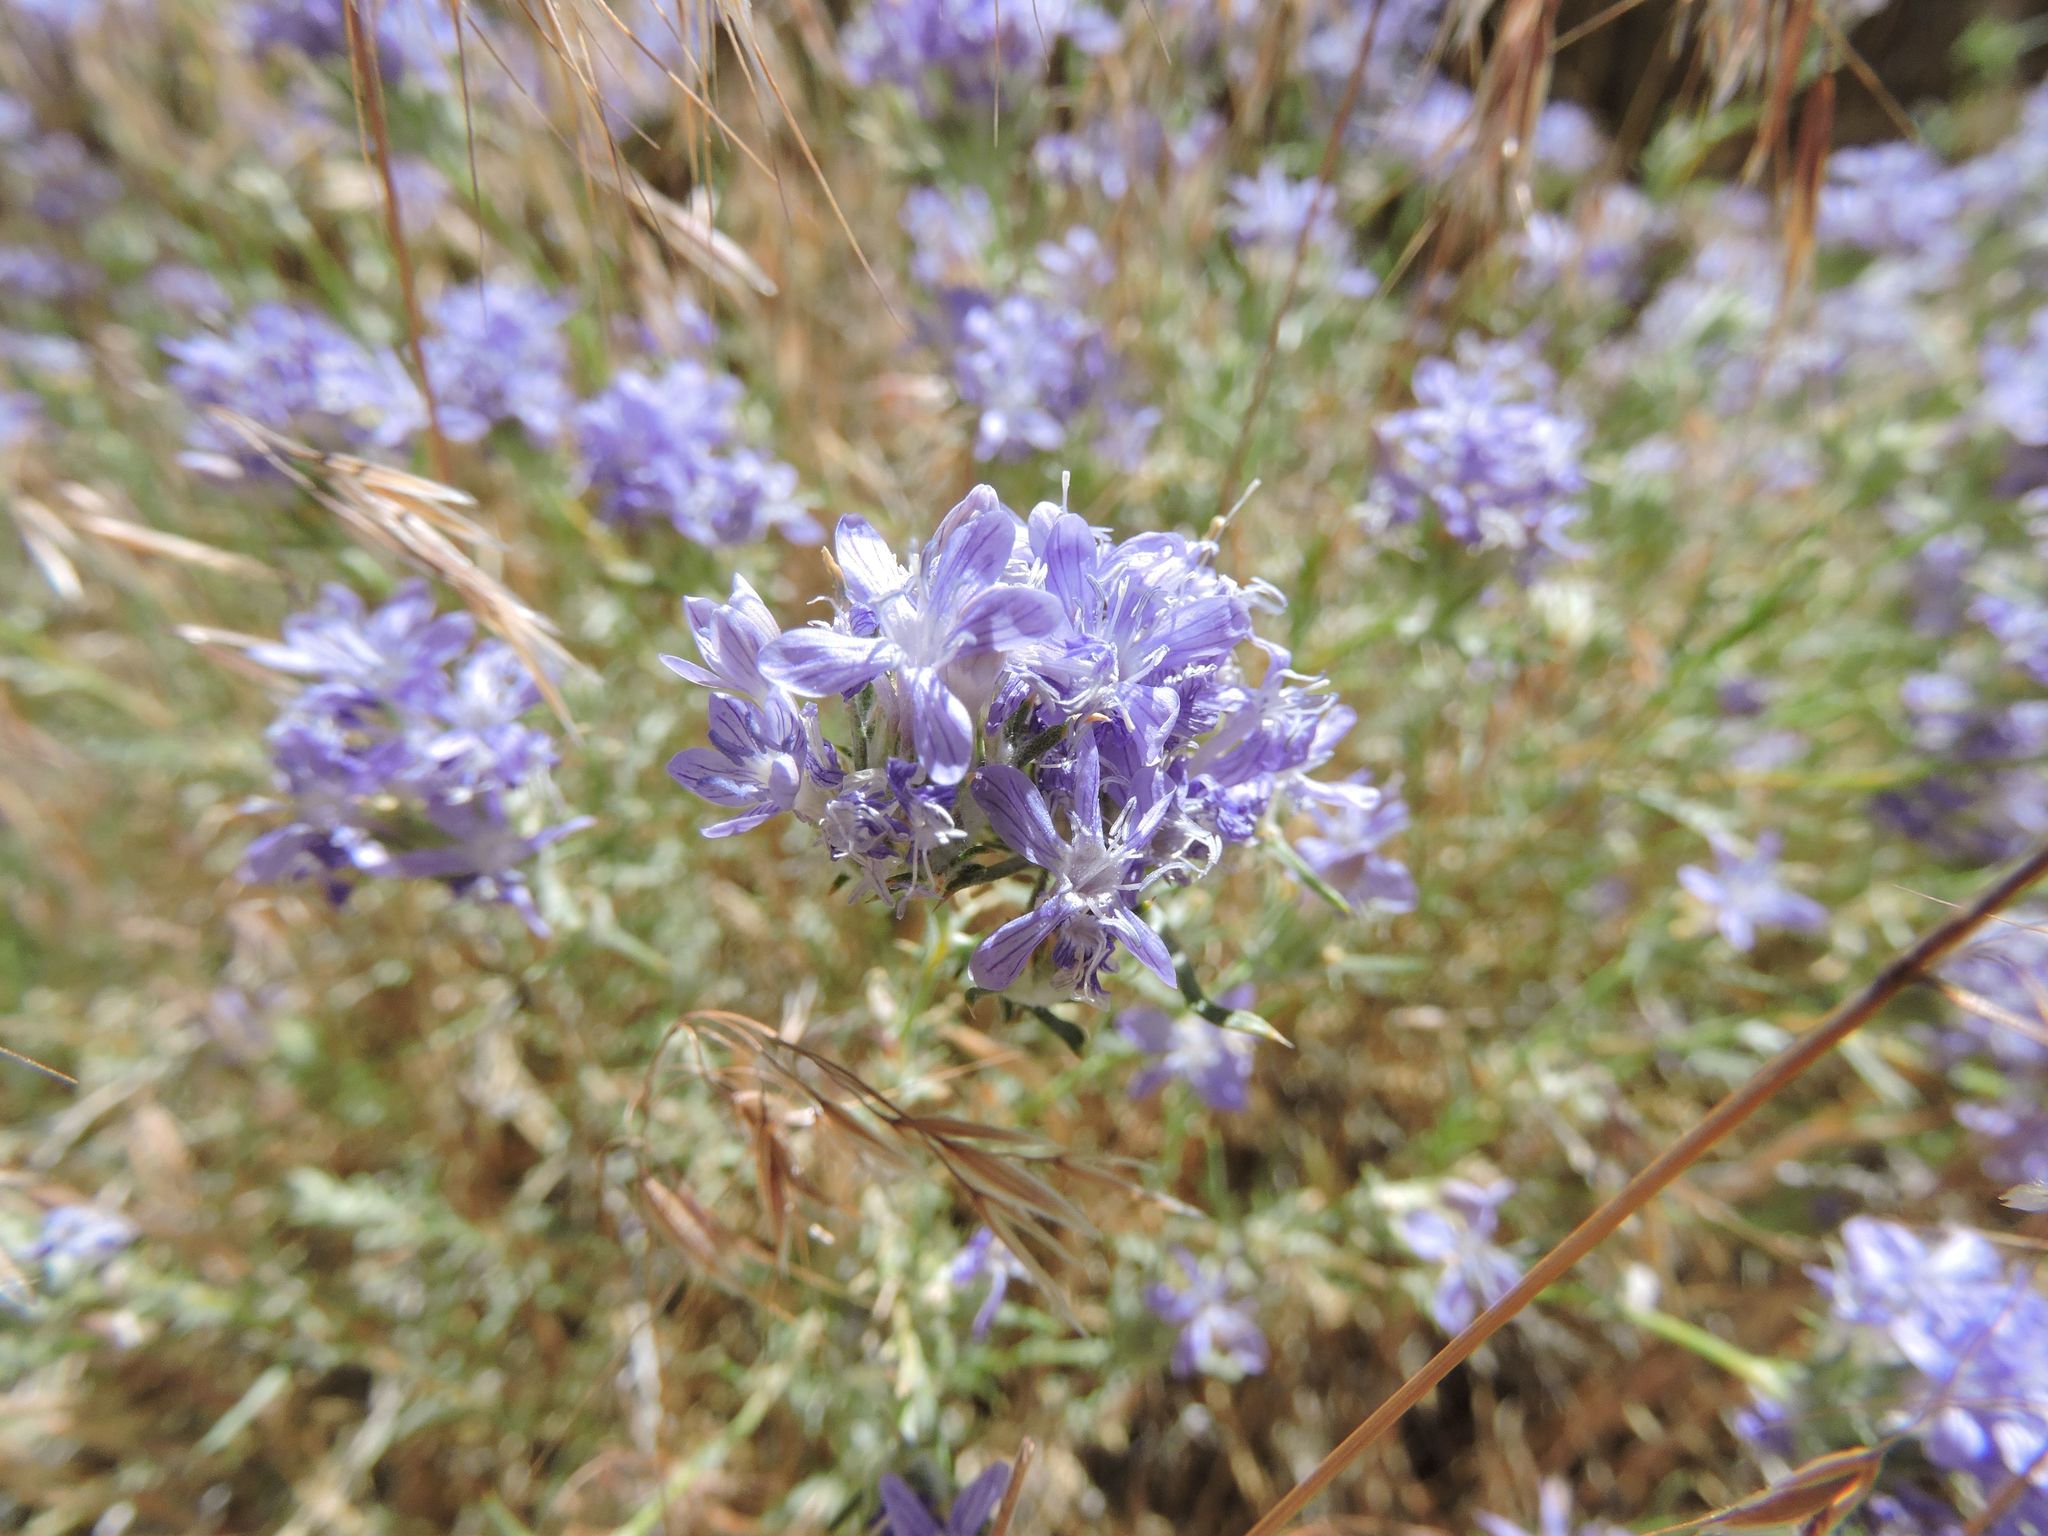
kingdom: Plantae
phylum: Tracheophyta
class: Magnoliopsida
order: Ericales
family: Polemoniaceae
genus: Eriastrum
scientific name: Eriastrum densifolium
